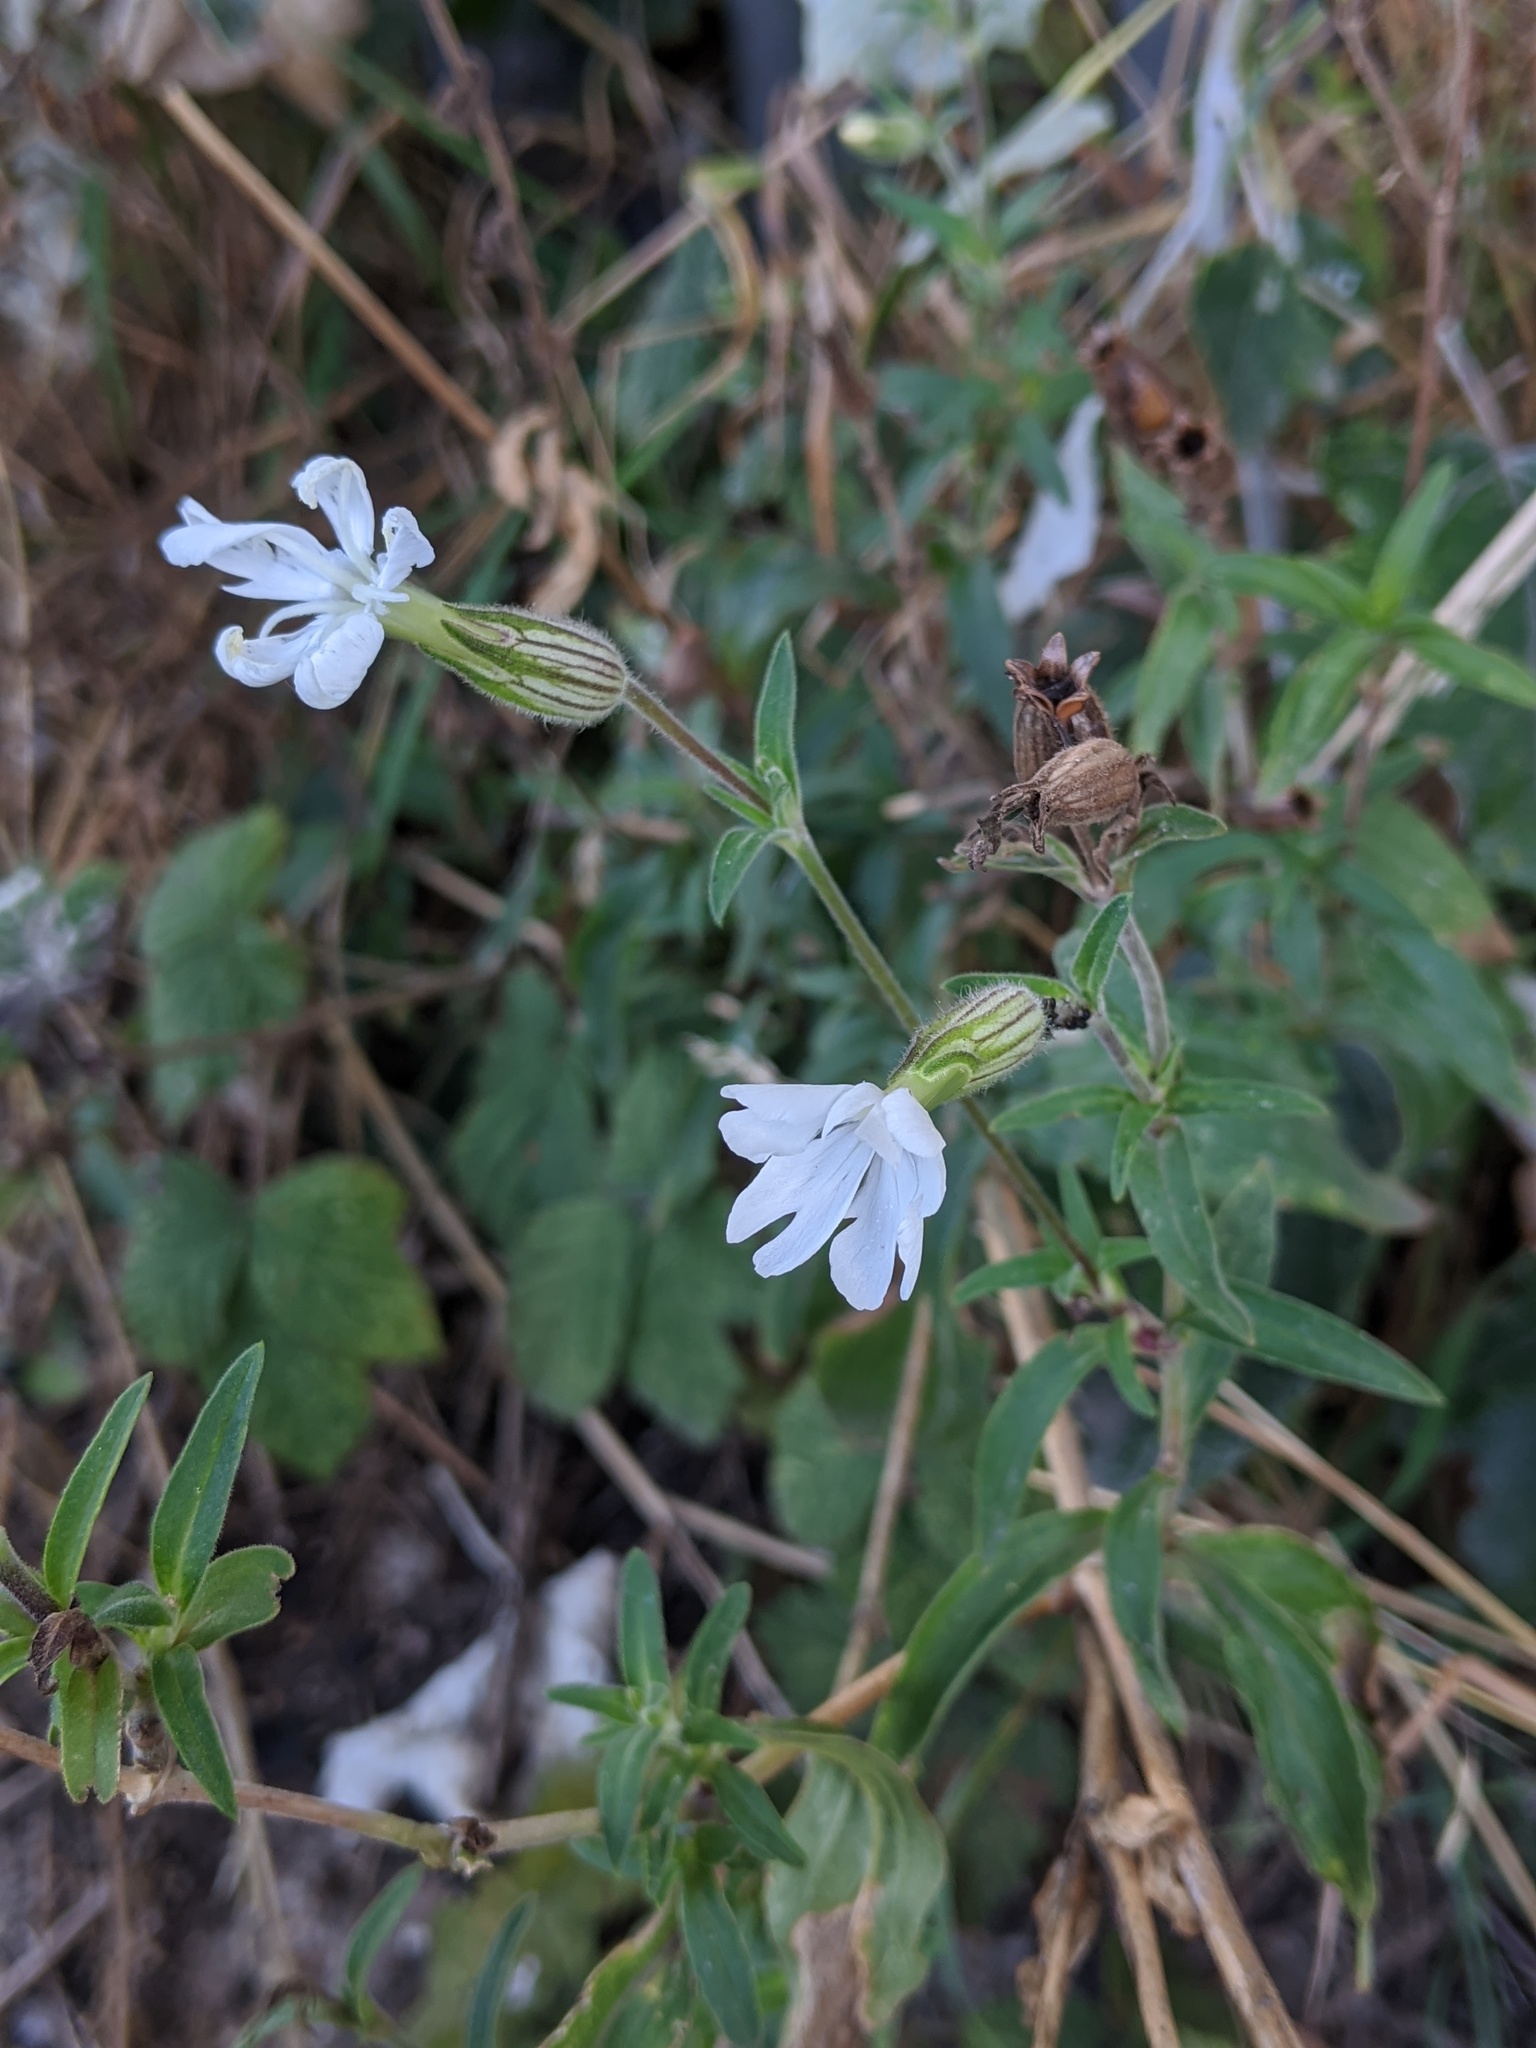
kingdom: Plantae
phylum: Tracheophyta
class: Magnoliopsida
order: Caryophyllales
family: Caryophyllaceae
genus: Silene
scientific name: Silene latifolia
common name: White campion
